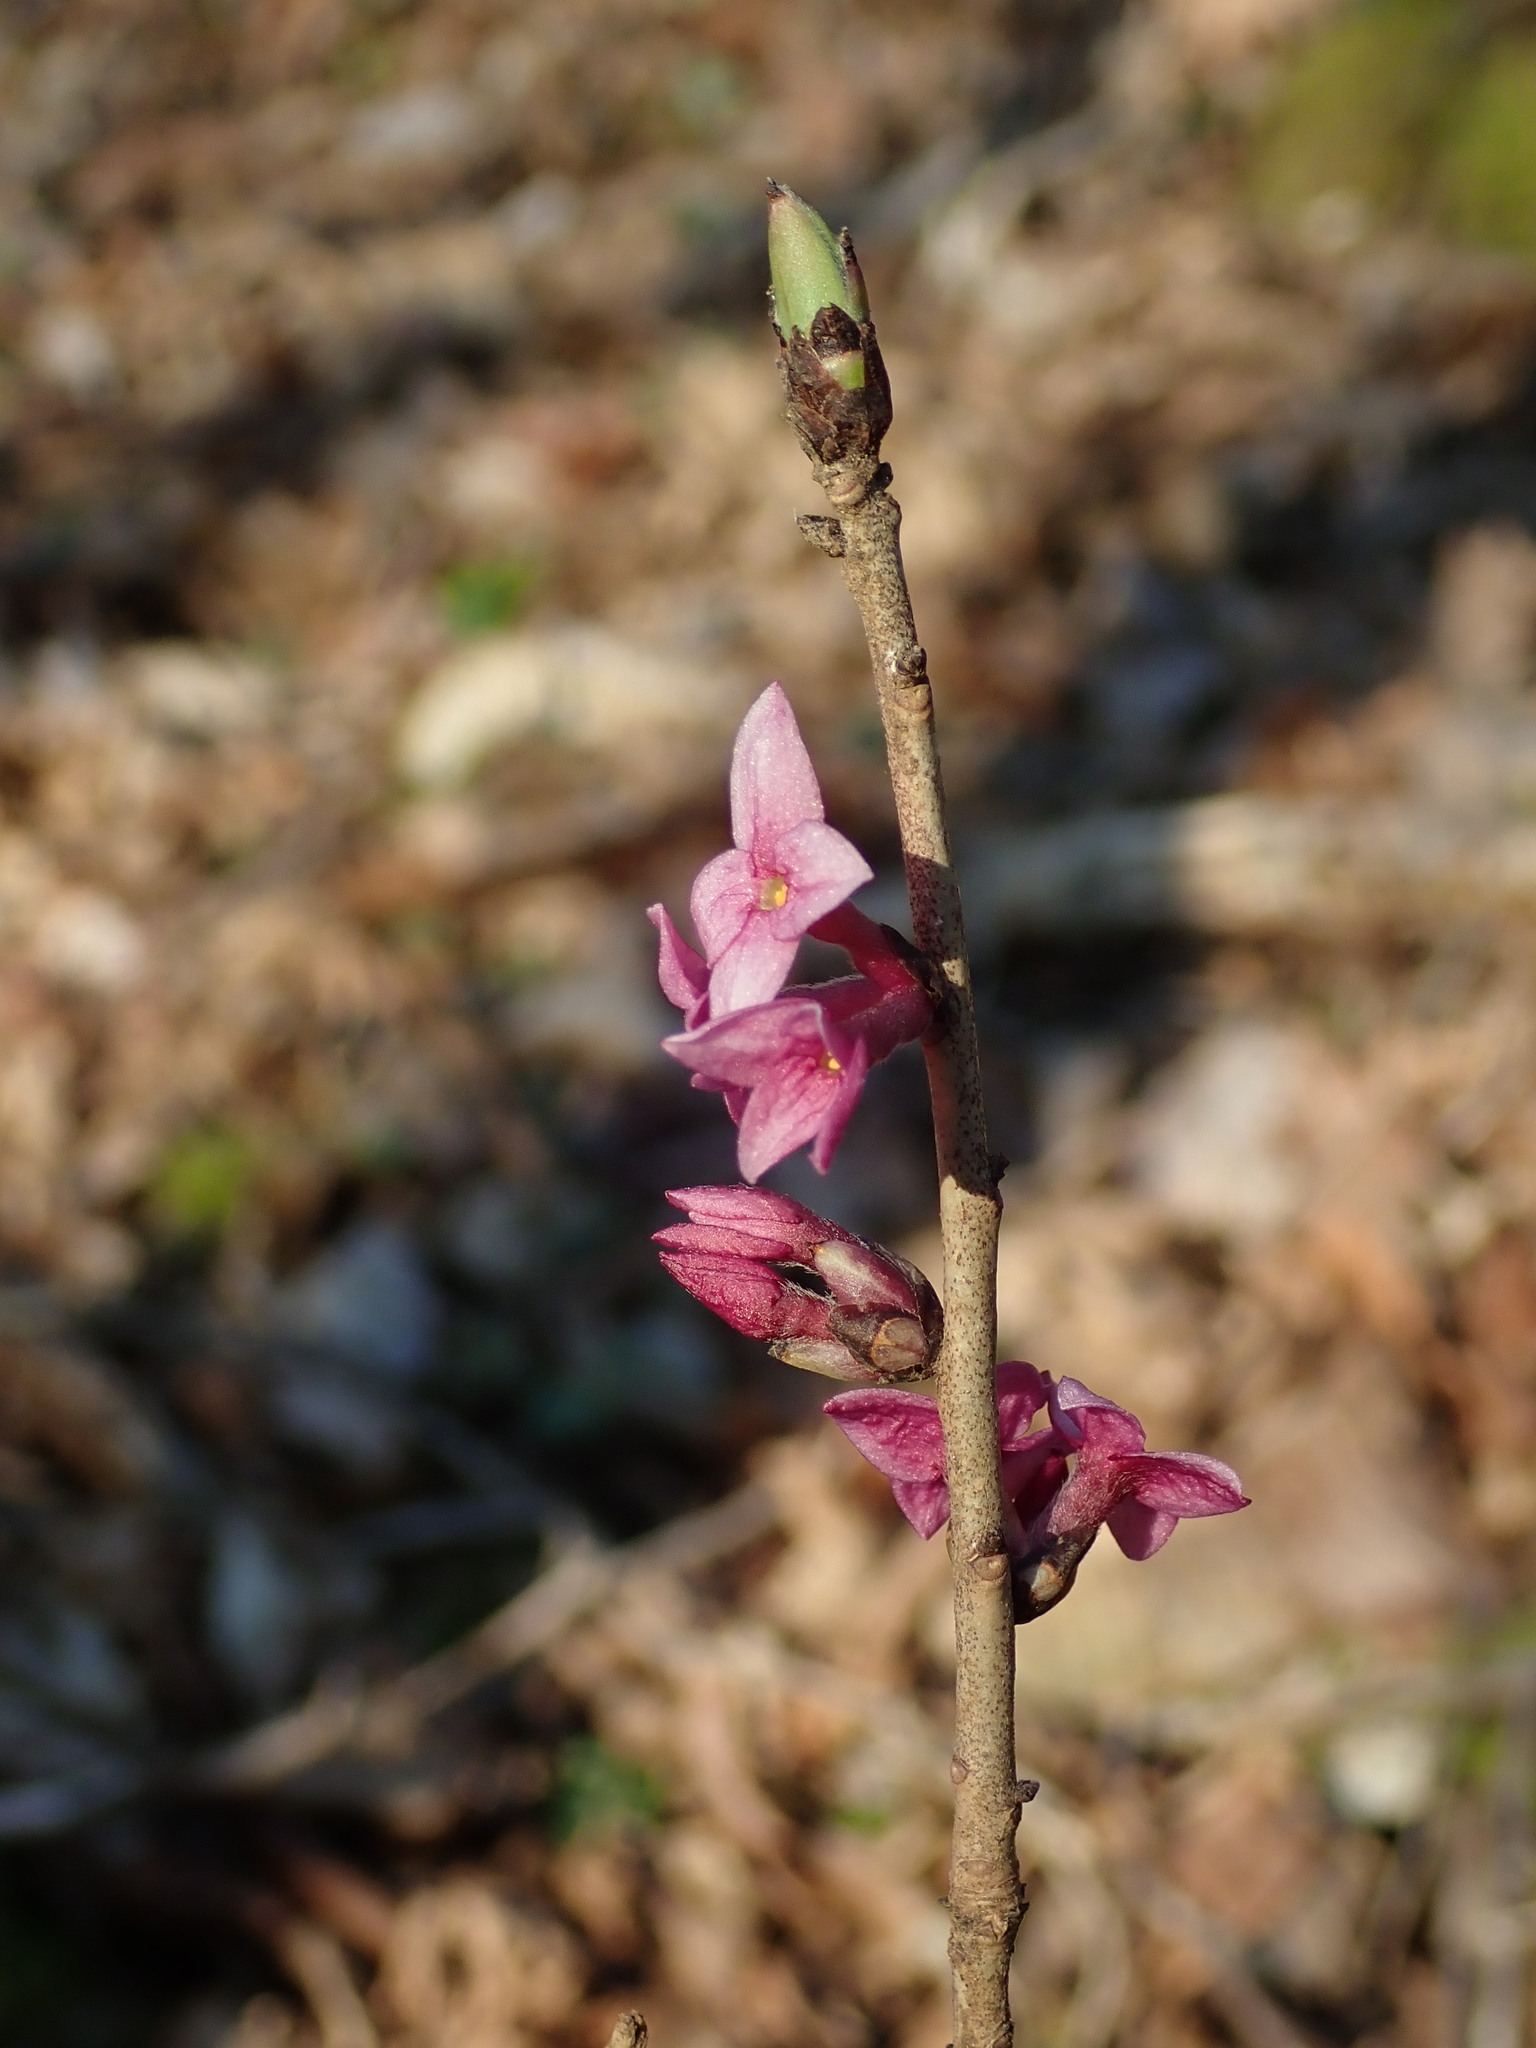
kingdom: Plantae
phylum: Tracheophyta
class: Magnoliopsida
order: Malvales
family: Thymelaeaceae
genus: Daphne
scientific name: Daphne mezereum
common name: Mezereon
